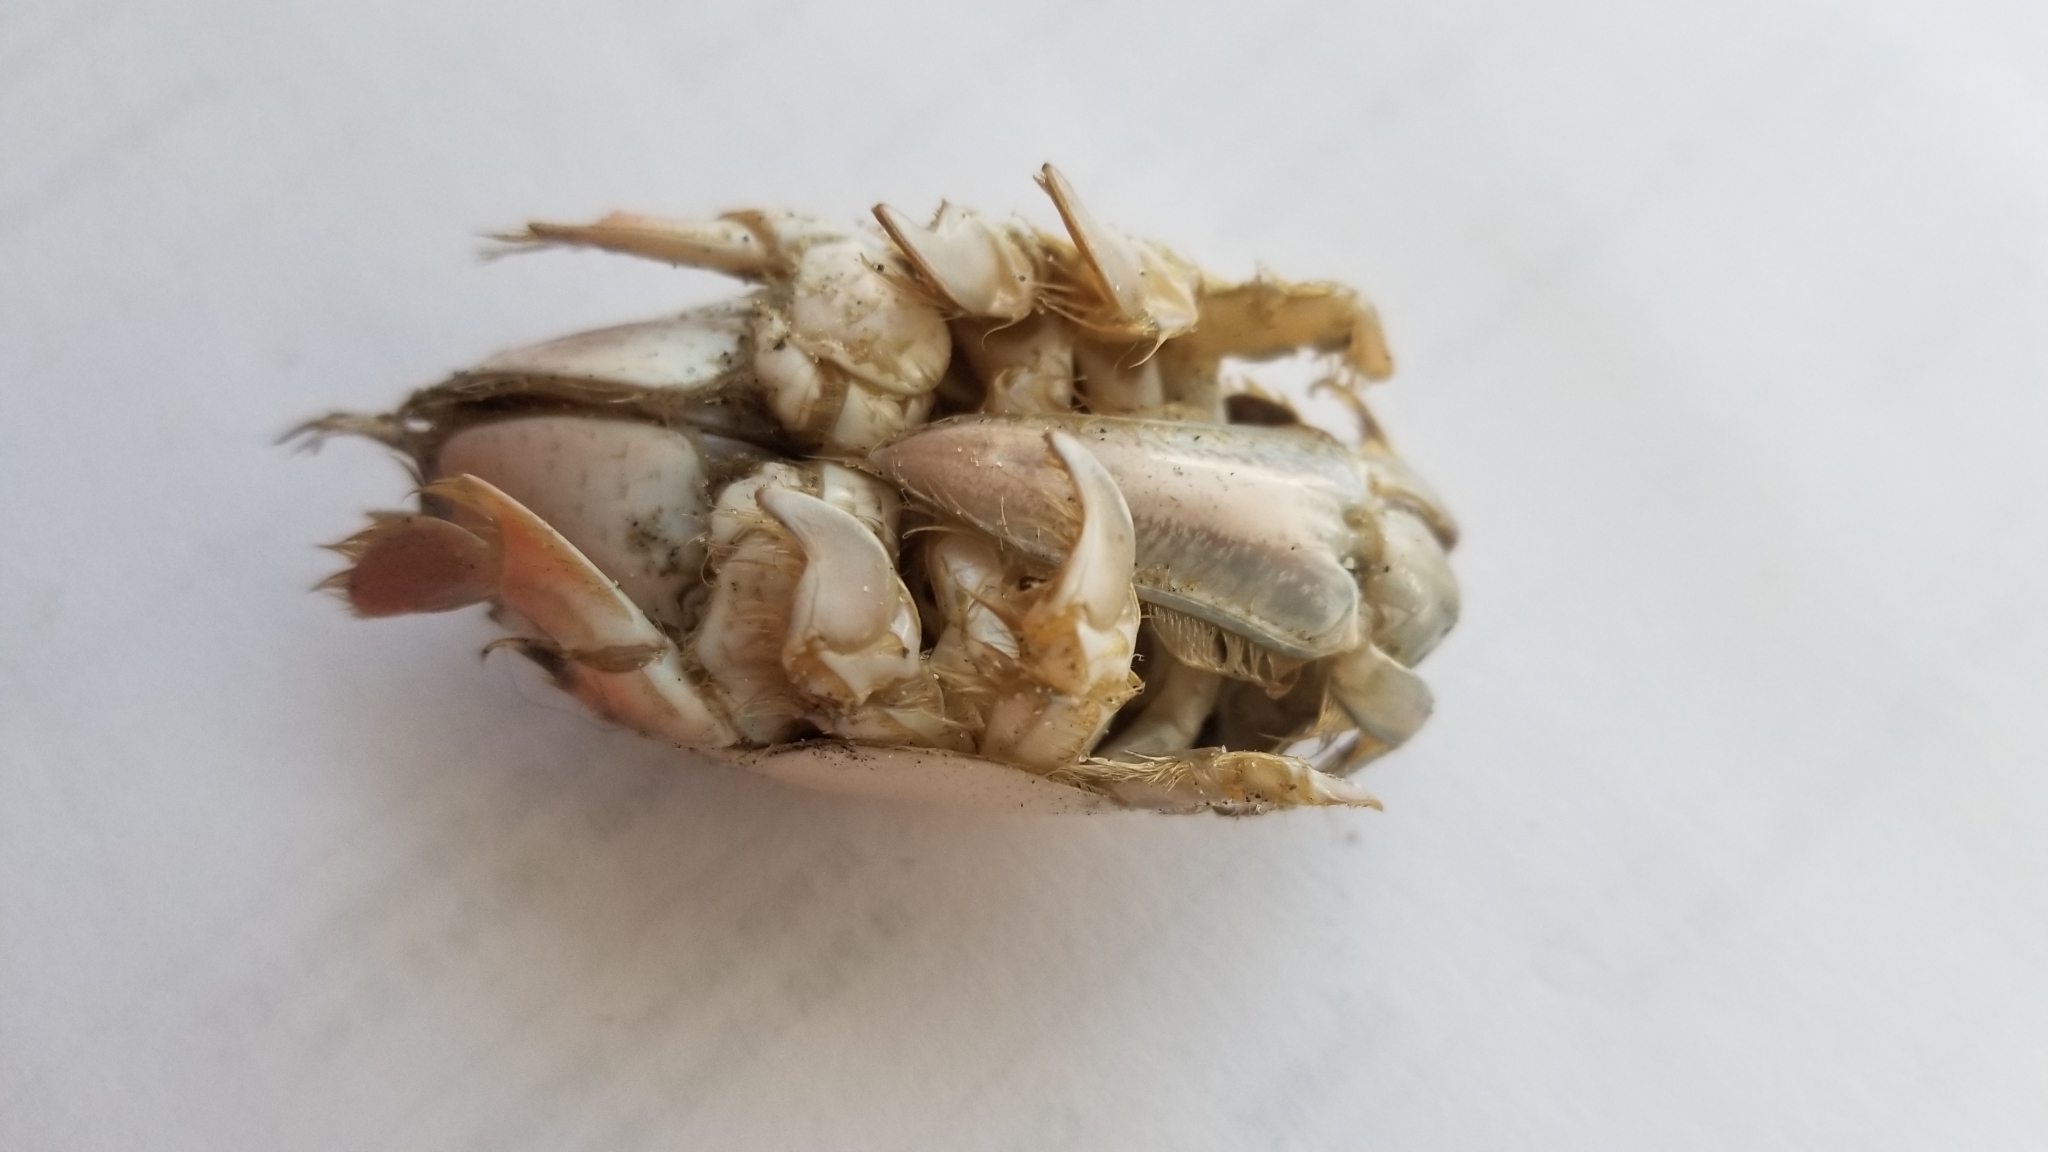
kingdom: Animalia
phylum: Arthropoda
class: Malacostraca
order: Decapoda
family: Hippidae
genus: Emerita
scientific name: Emerita analoga
